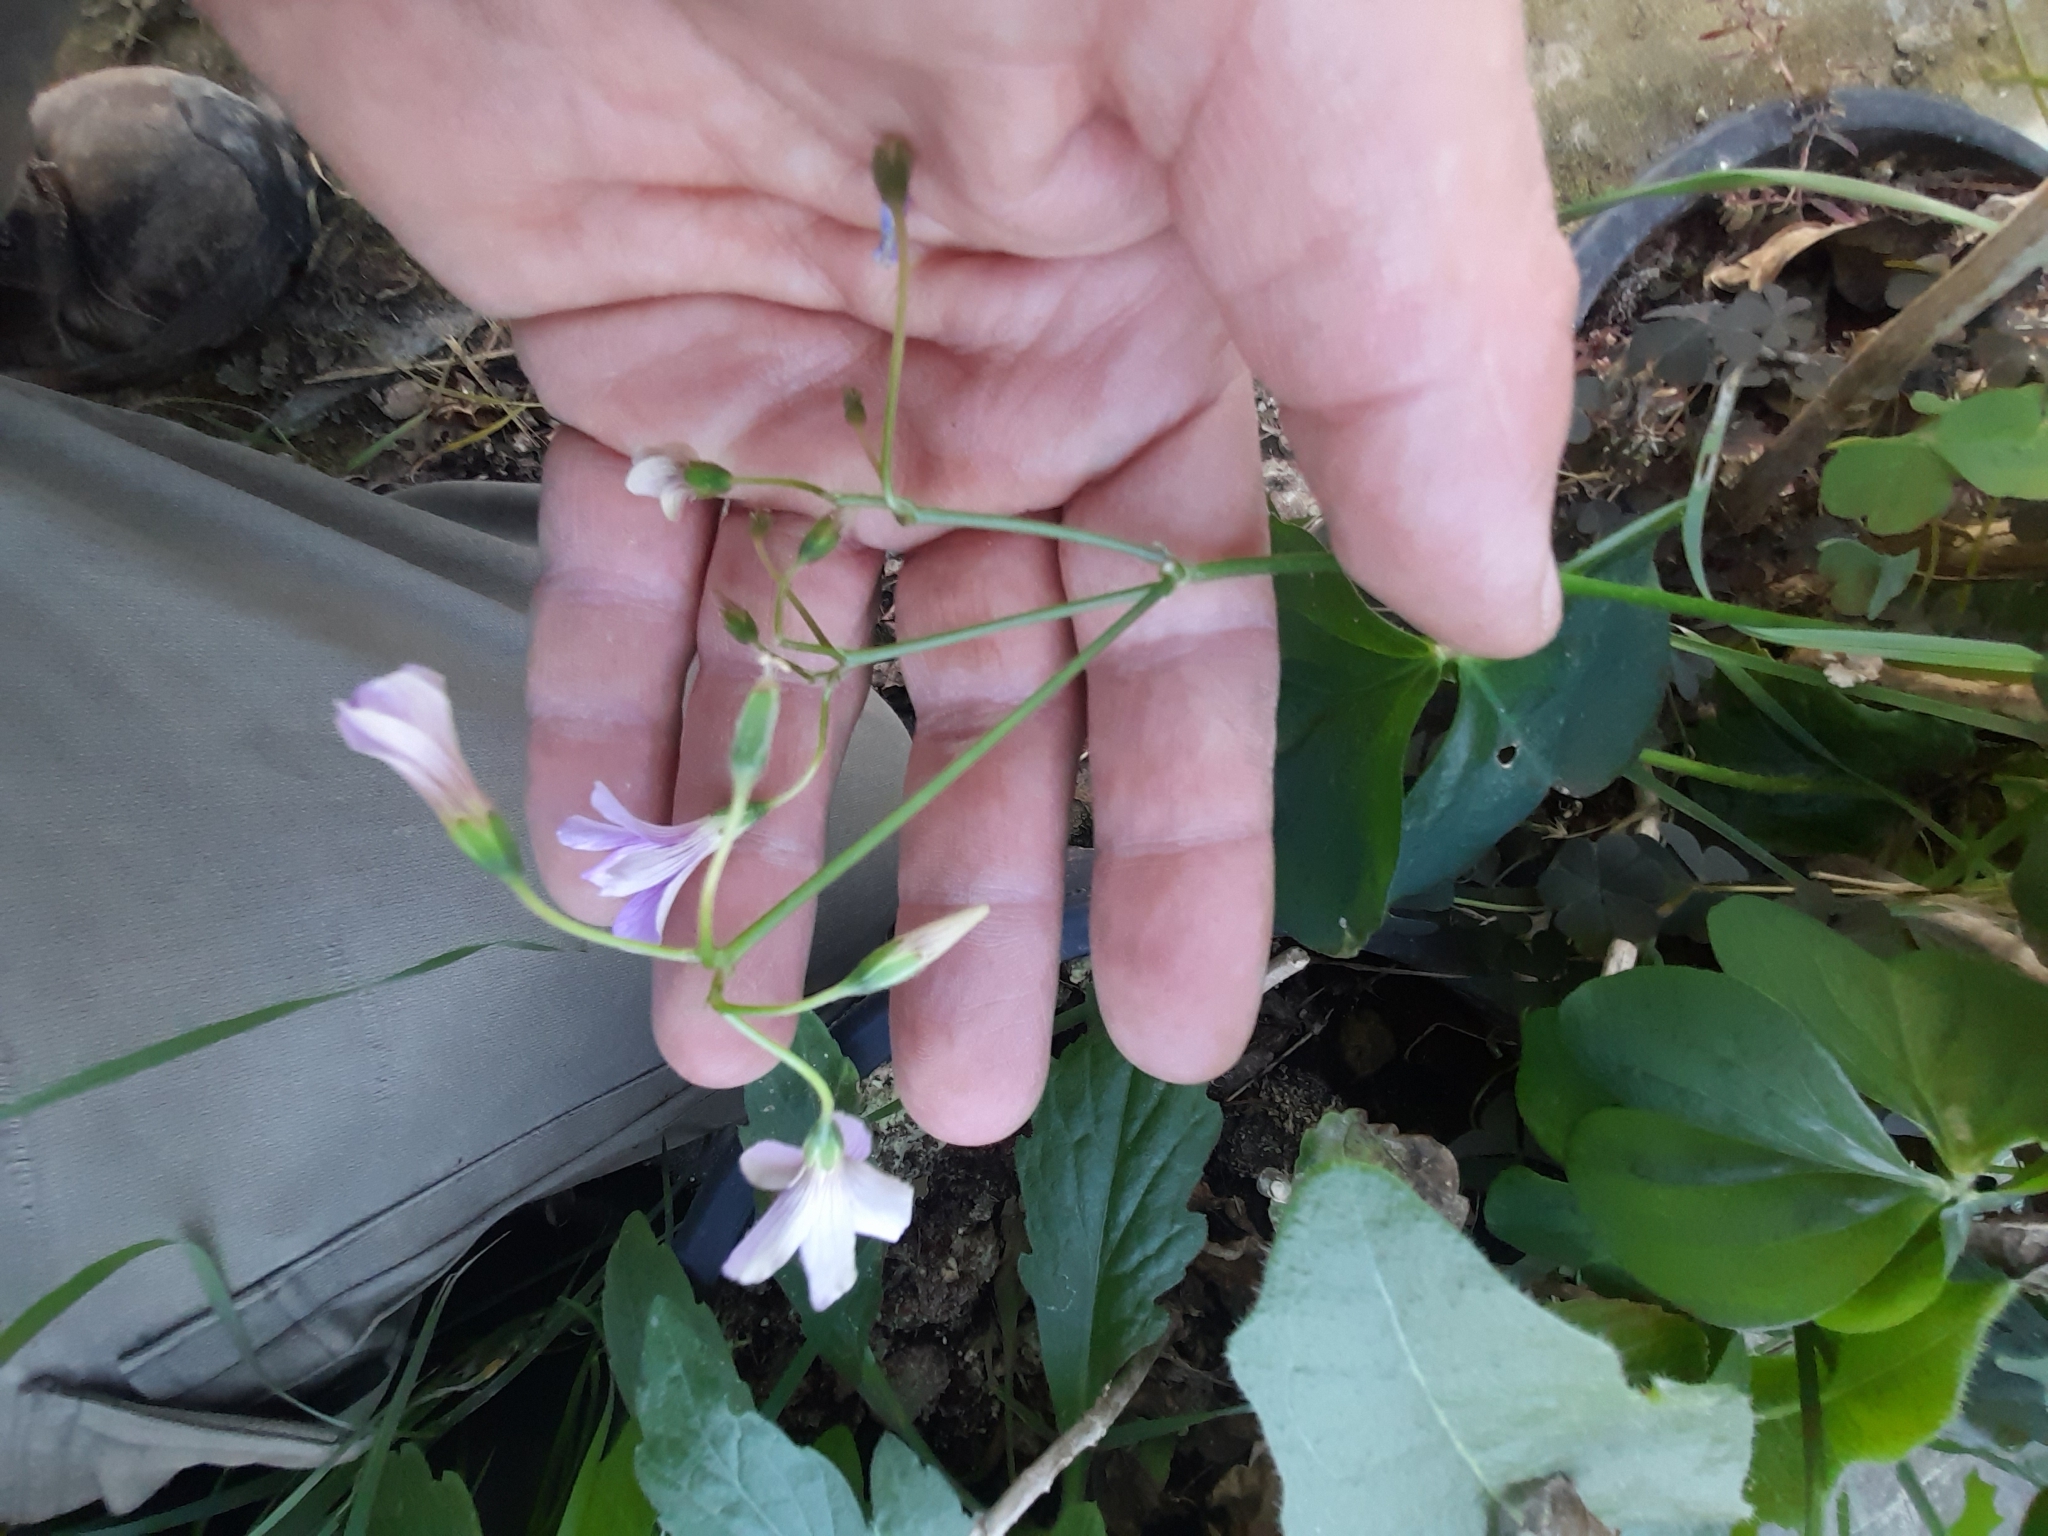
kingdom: Plantae
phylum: Tracheophyta
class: Magnoliopsida
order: Oxalidales
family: Oxalidaceae
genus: Oxalis
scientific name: Oxalis debilis
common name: Large-flowered pink-sorrel
